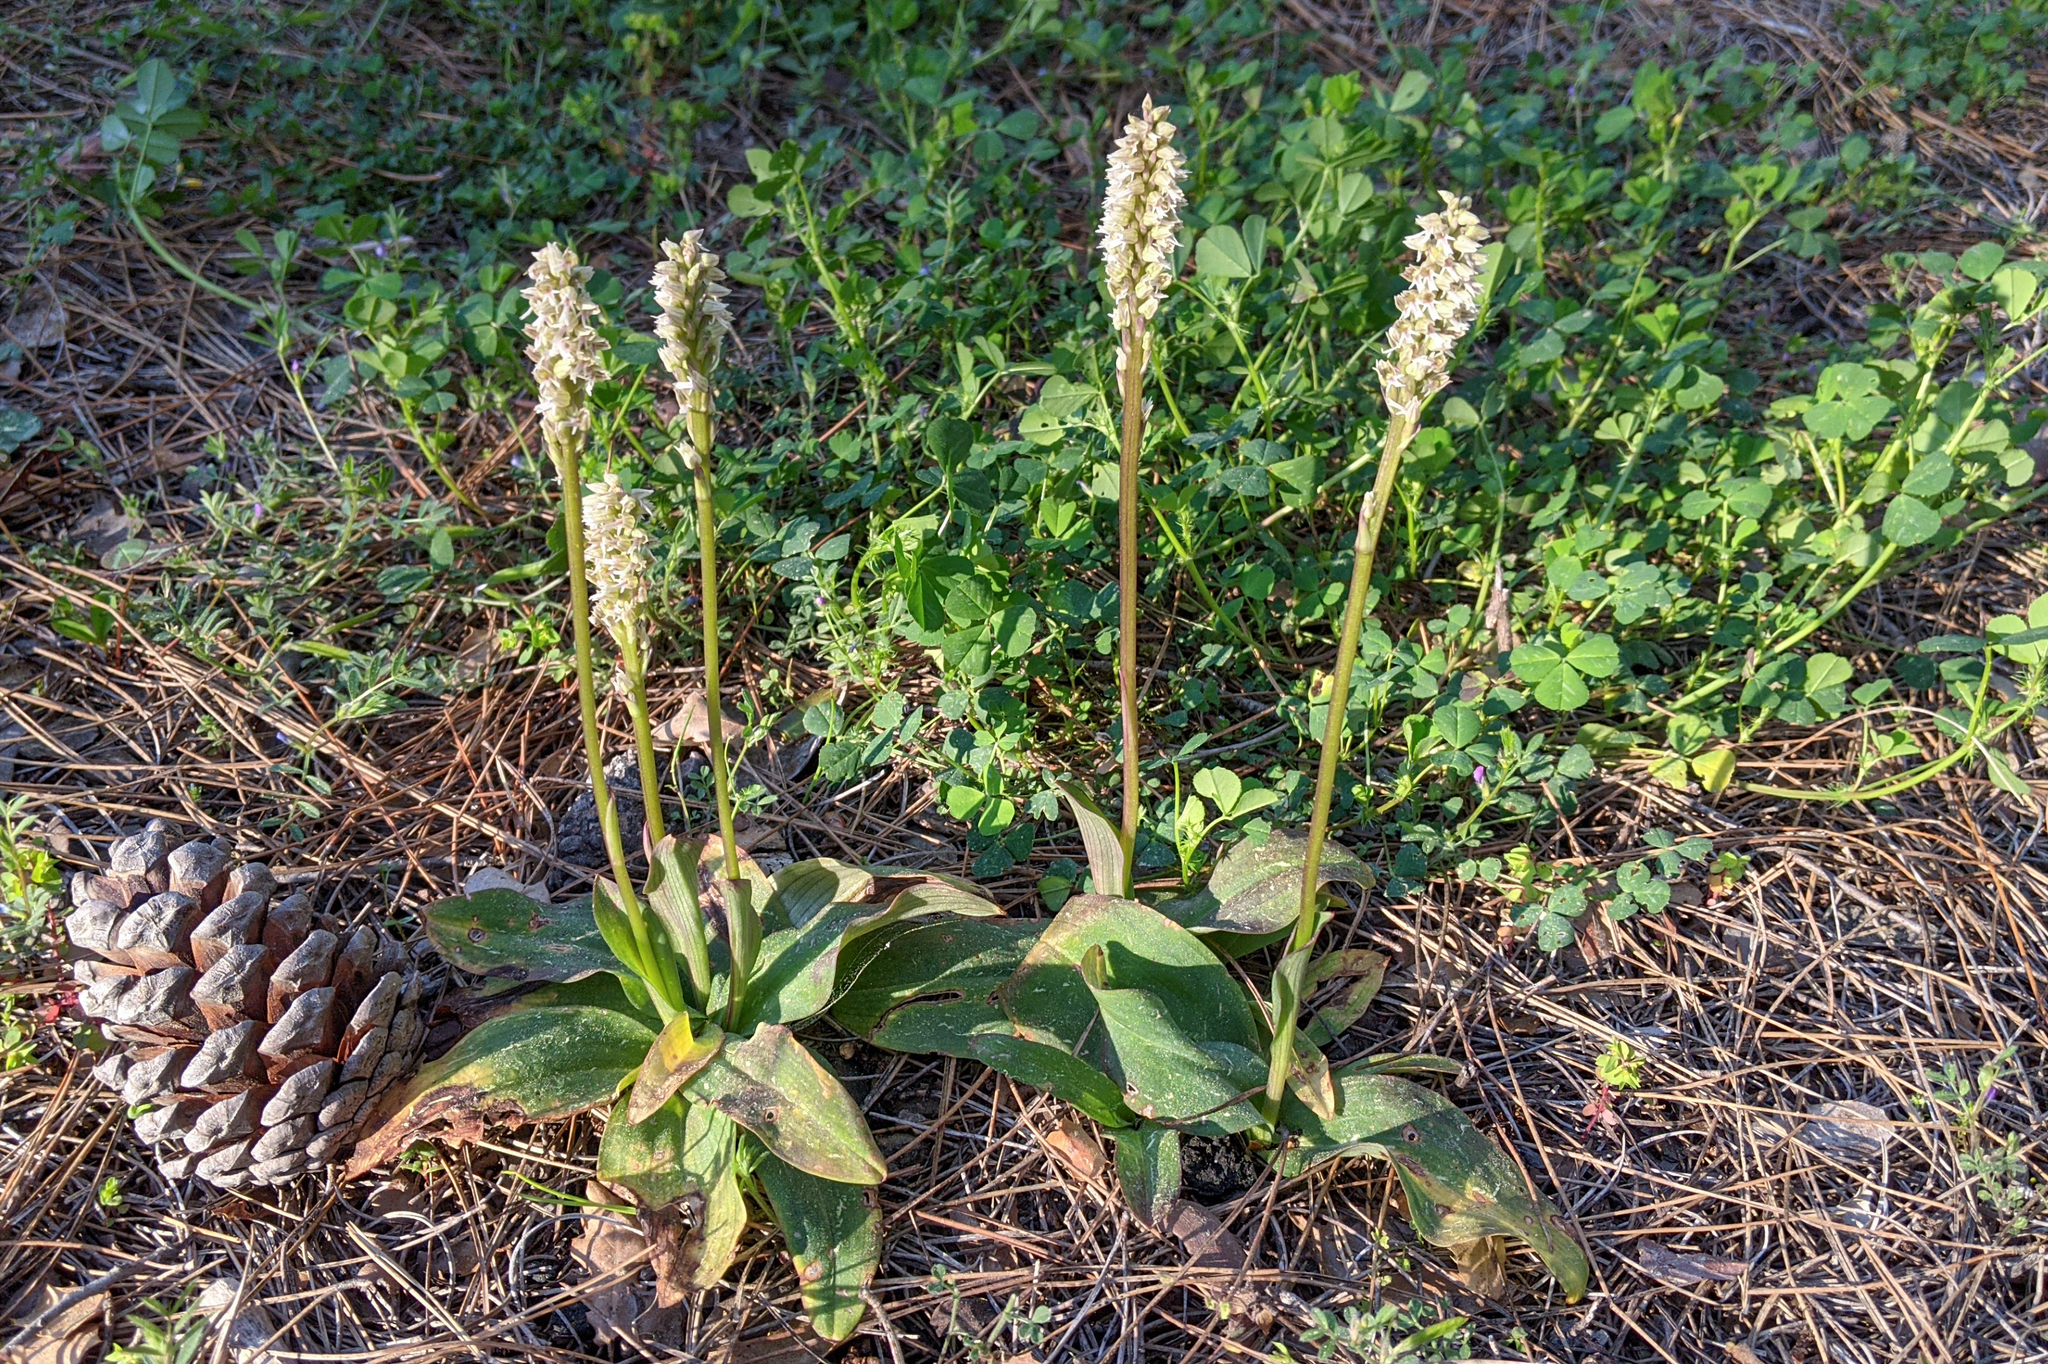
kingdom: Plantae
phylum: Tracheophyta
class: Liliopsida
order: Asparagales
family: Orchidaceae
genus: Neotinea
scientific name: Neotinea maculata
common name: Dense-flowered orchid
